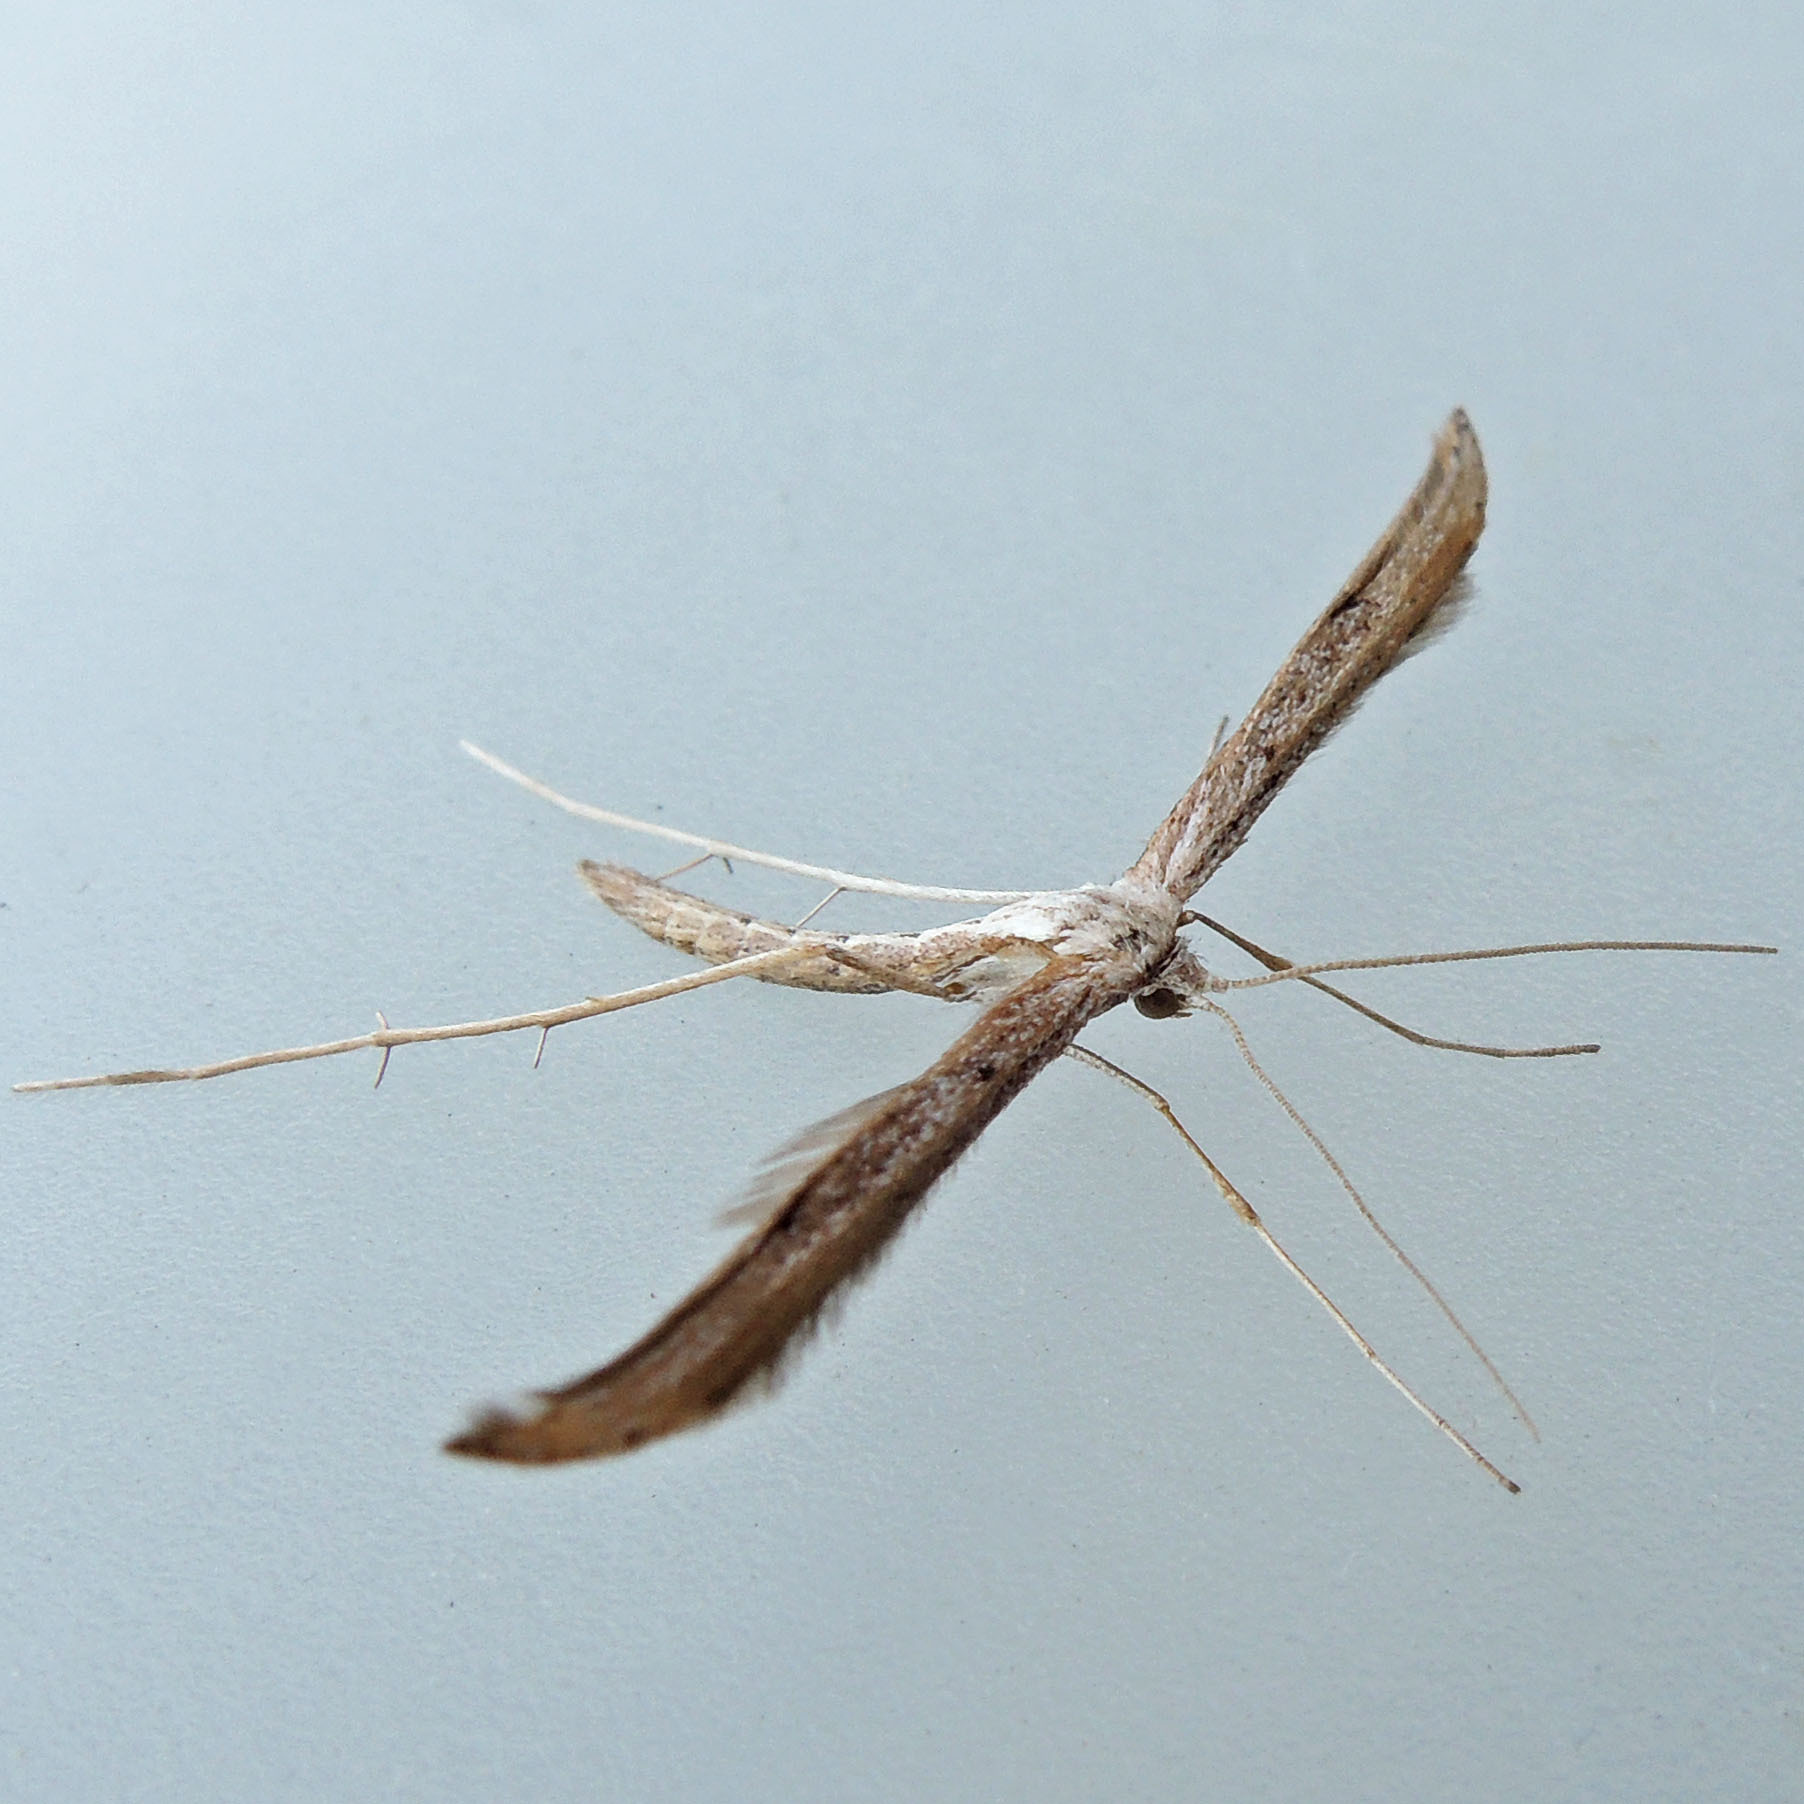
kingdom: Animalia
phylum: Arthropoda
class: Insecta
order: Lepidoptera
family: Pterophoridae
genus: Emmelina
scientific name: Emmelina monodactyla
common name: Common plume
